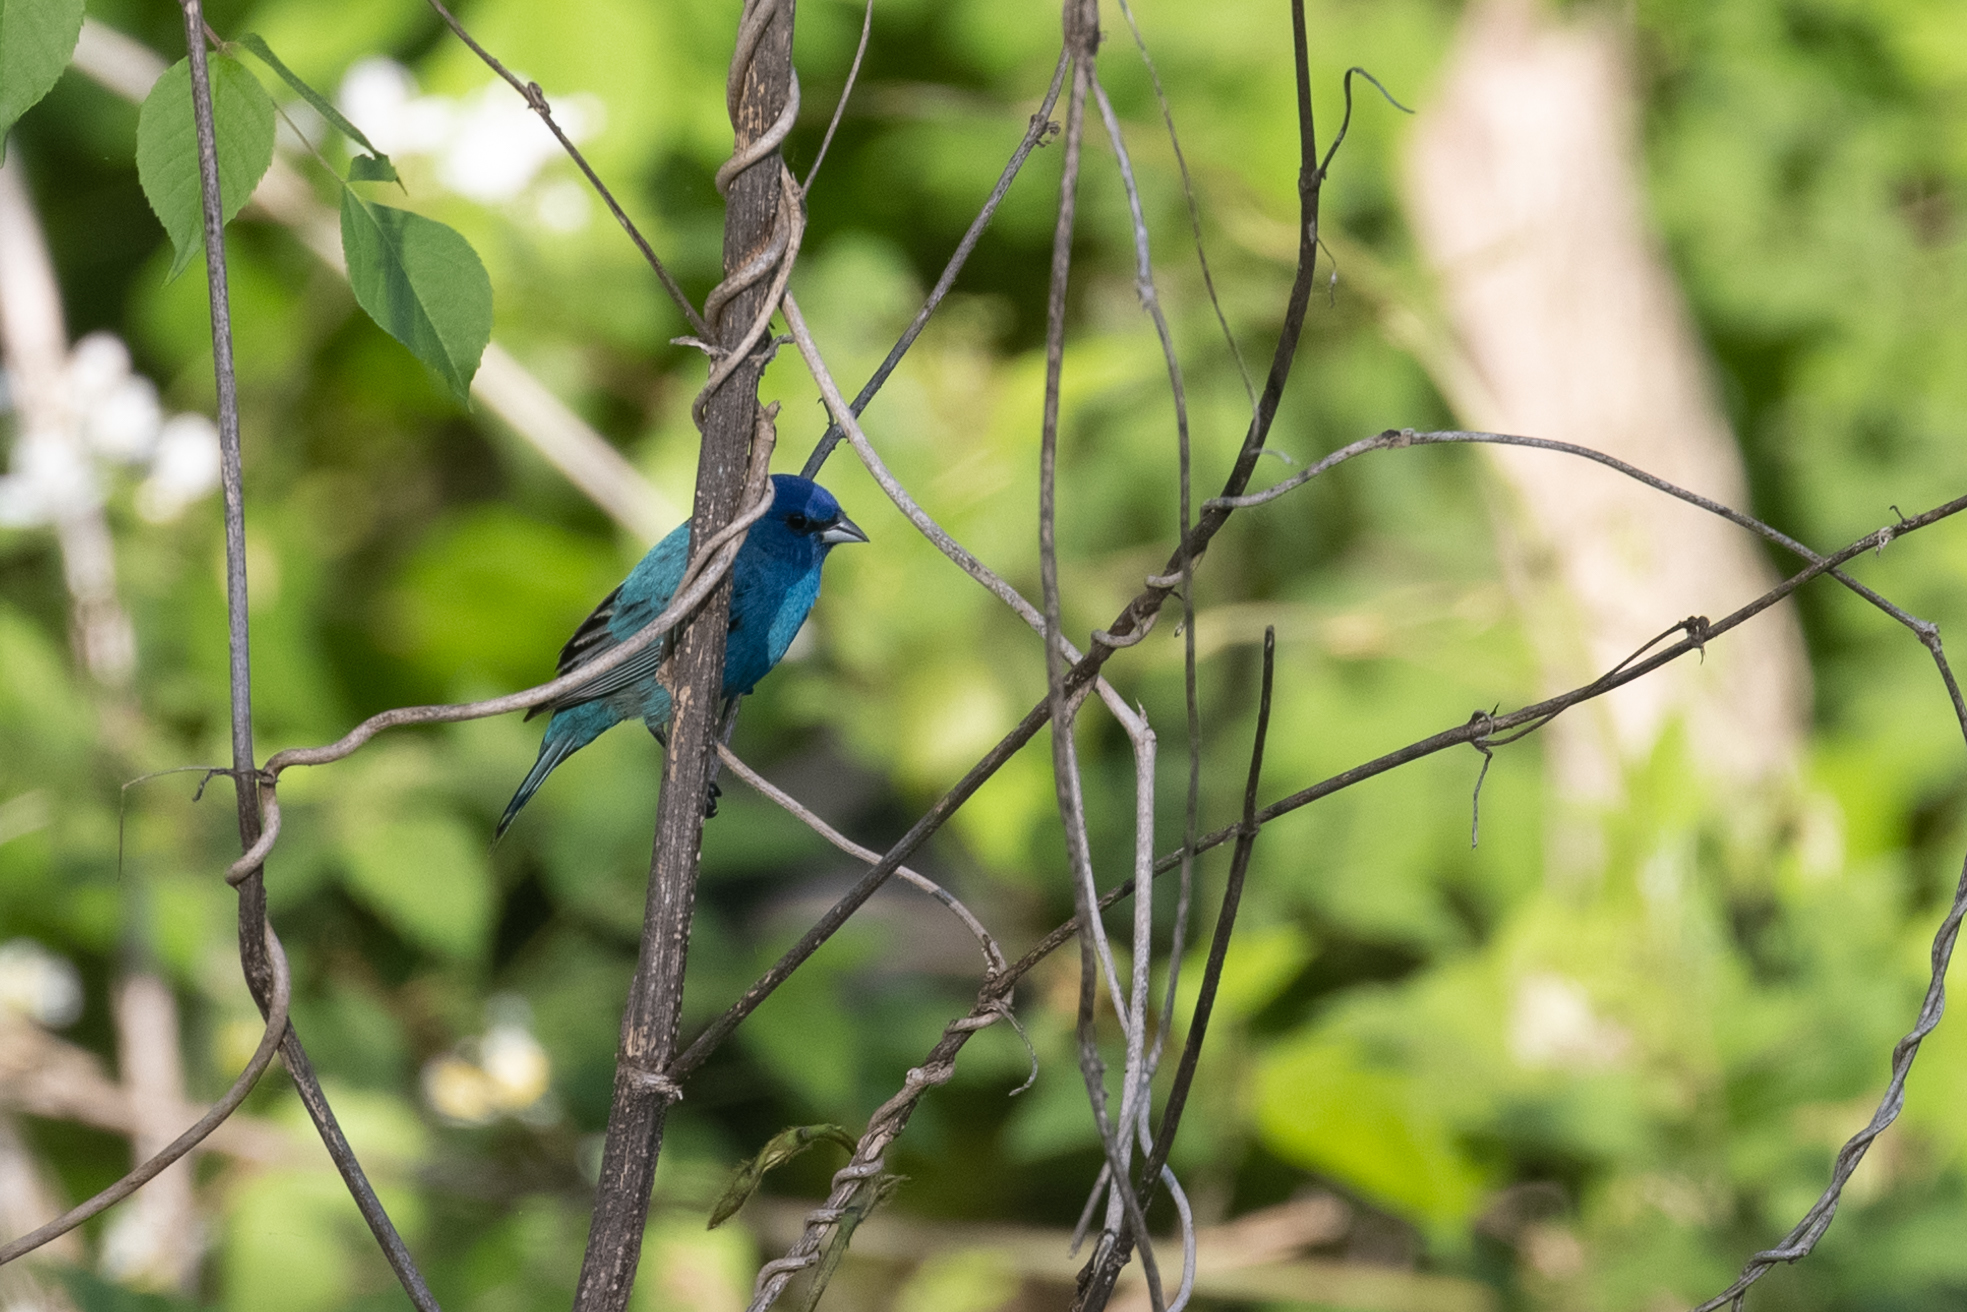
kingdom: Animalia
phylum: Chordata
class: Aves
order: Passeriformes
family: Cardinalidae
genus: Passerina
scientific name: Passerina cyanea
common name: Indigo bunting
